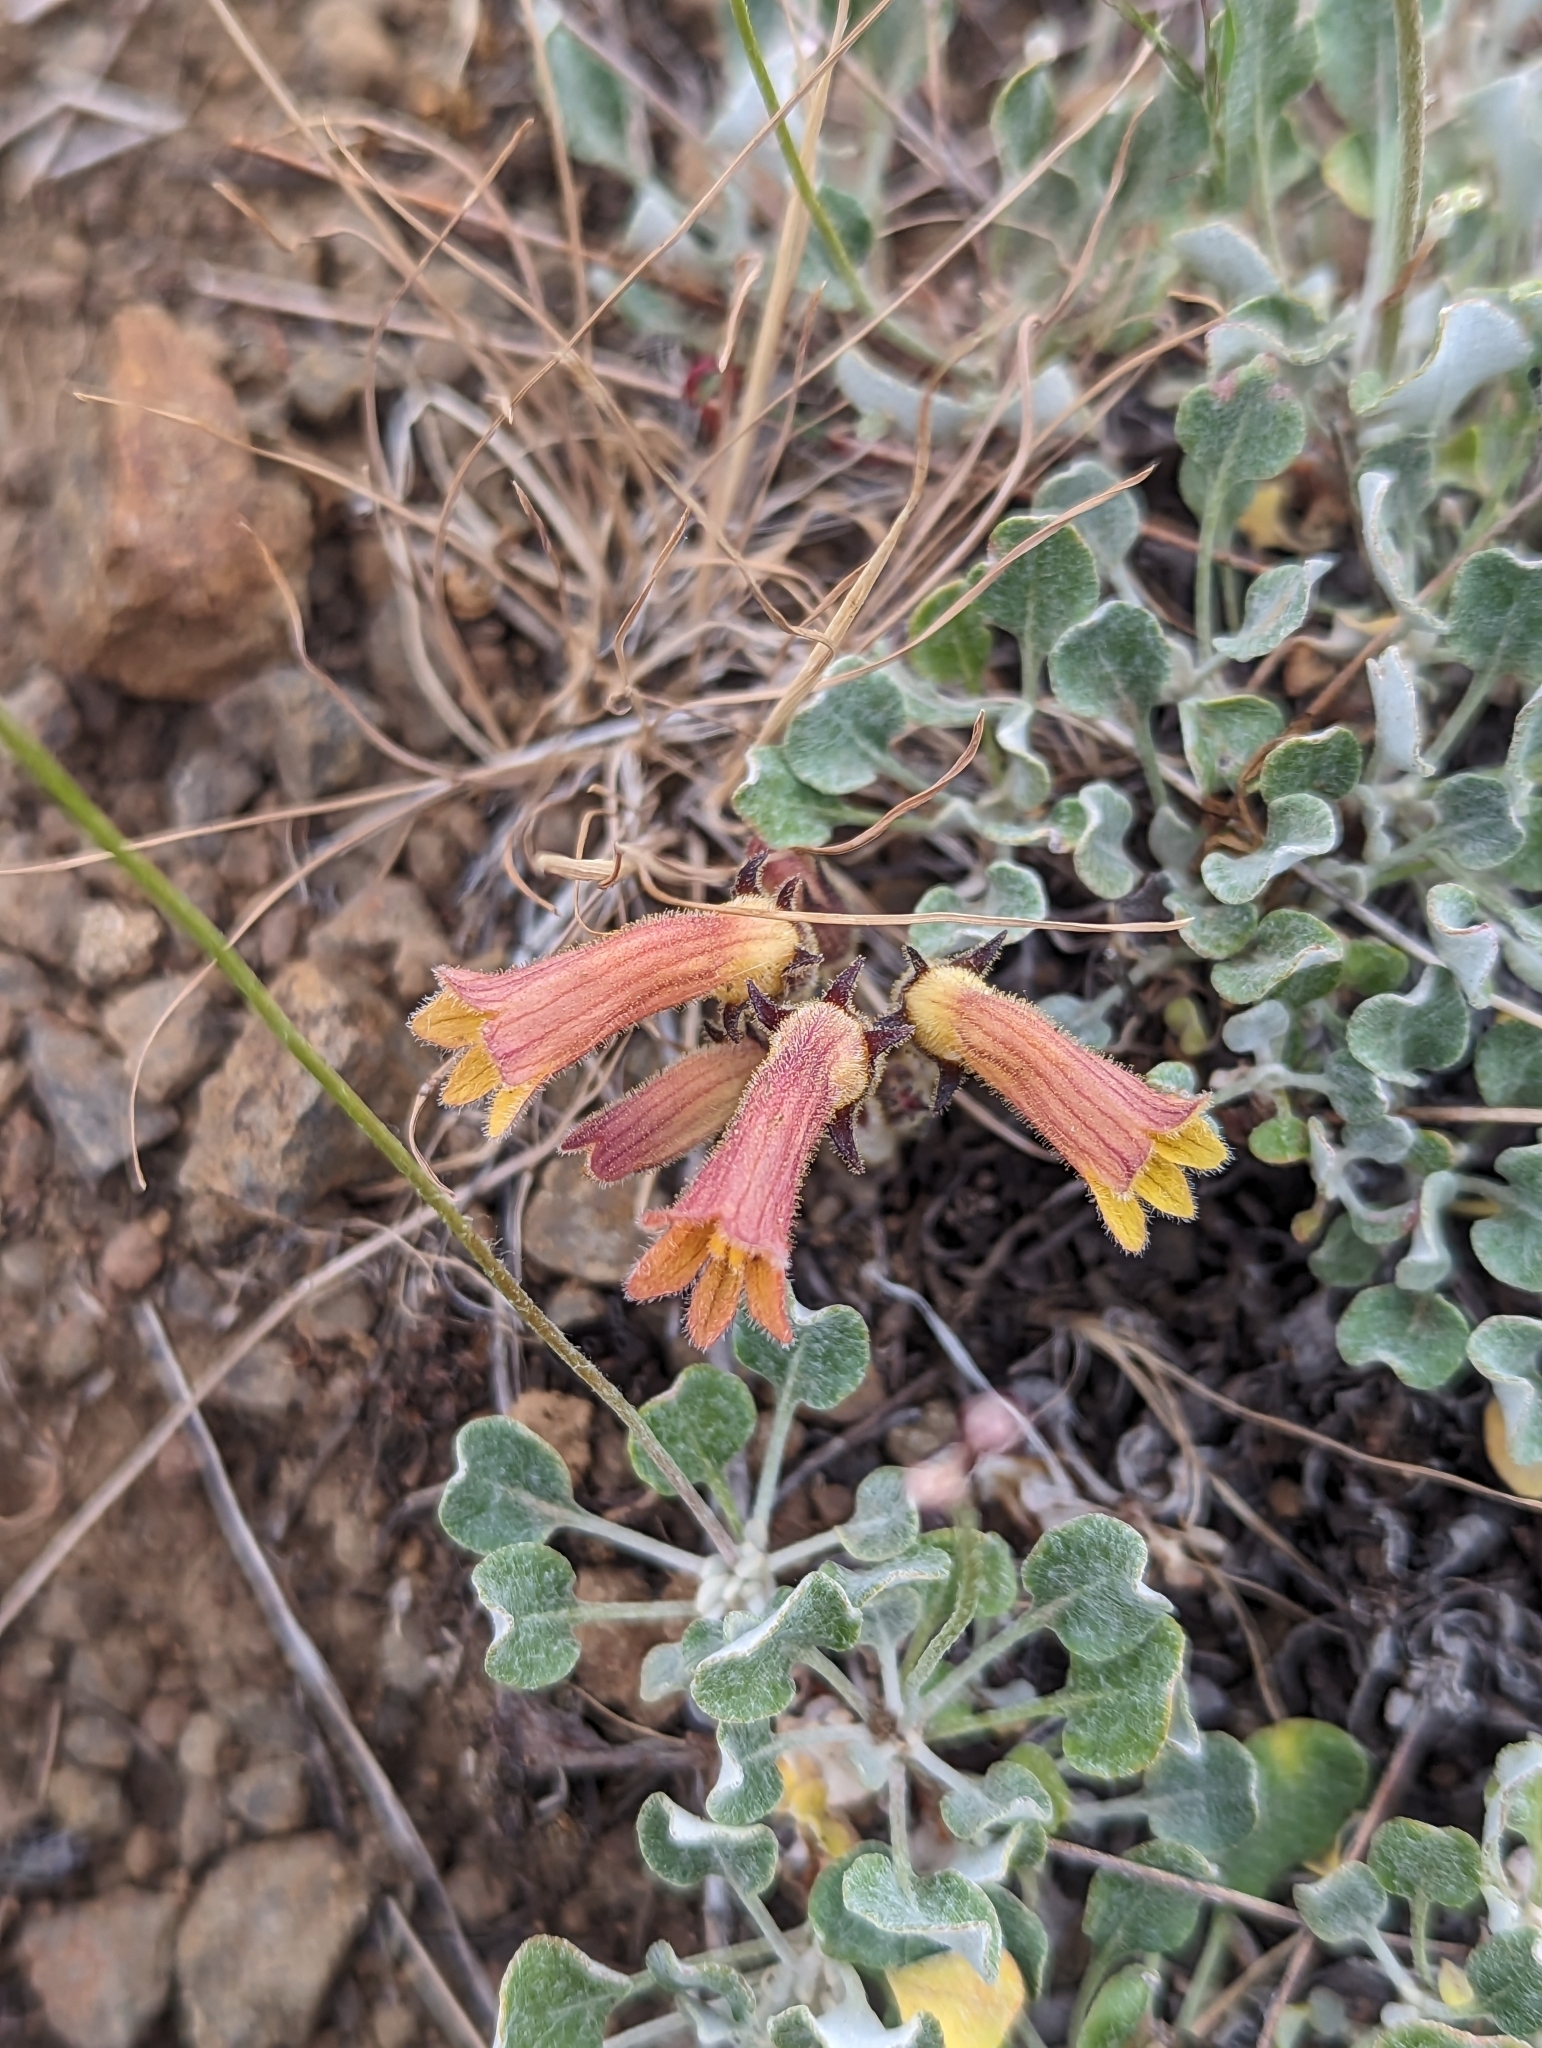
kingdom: Plantae
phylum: Tracheophyta
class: Magnoliopsida
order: Lamiales
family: Orobanchaceae
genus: Aphyllon
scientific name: Aphyllon franciscanum
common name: San francisco broomrape
